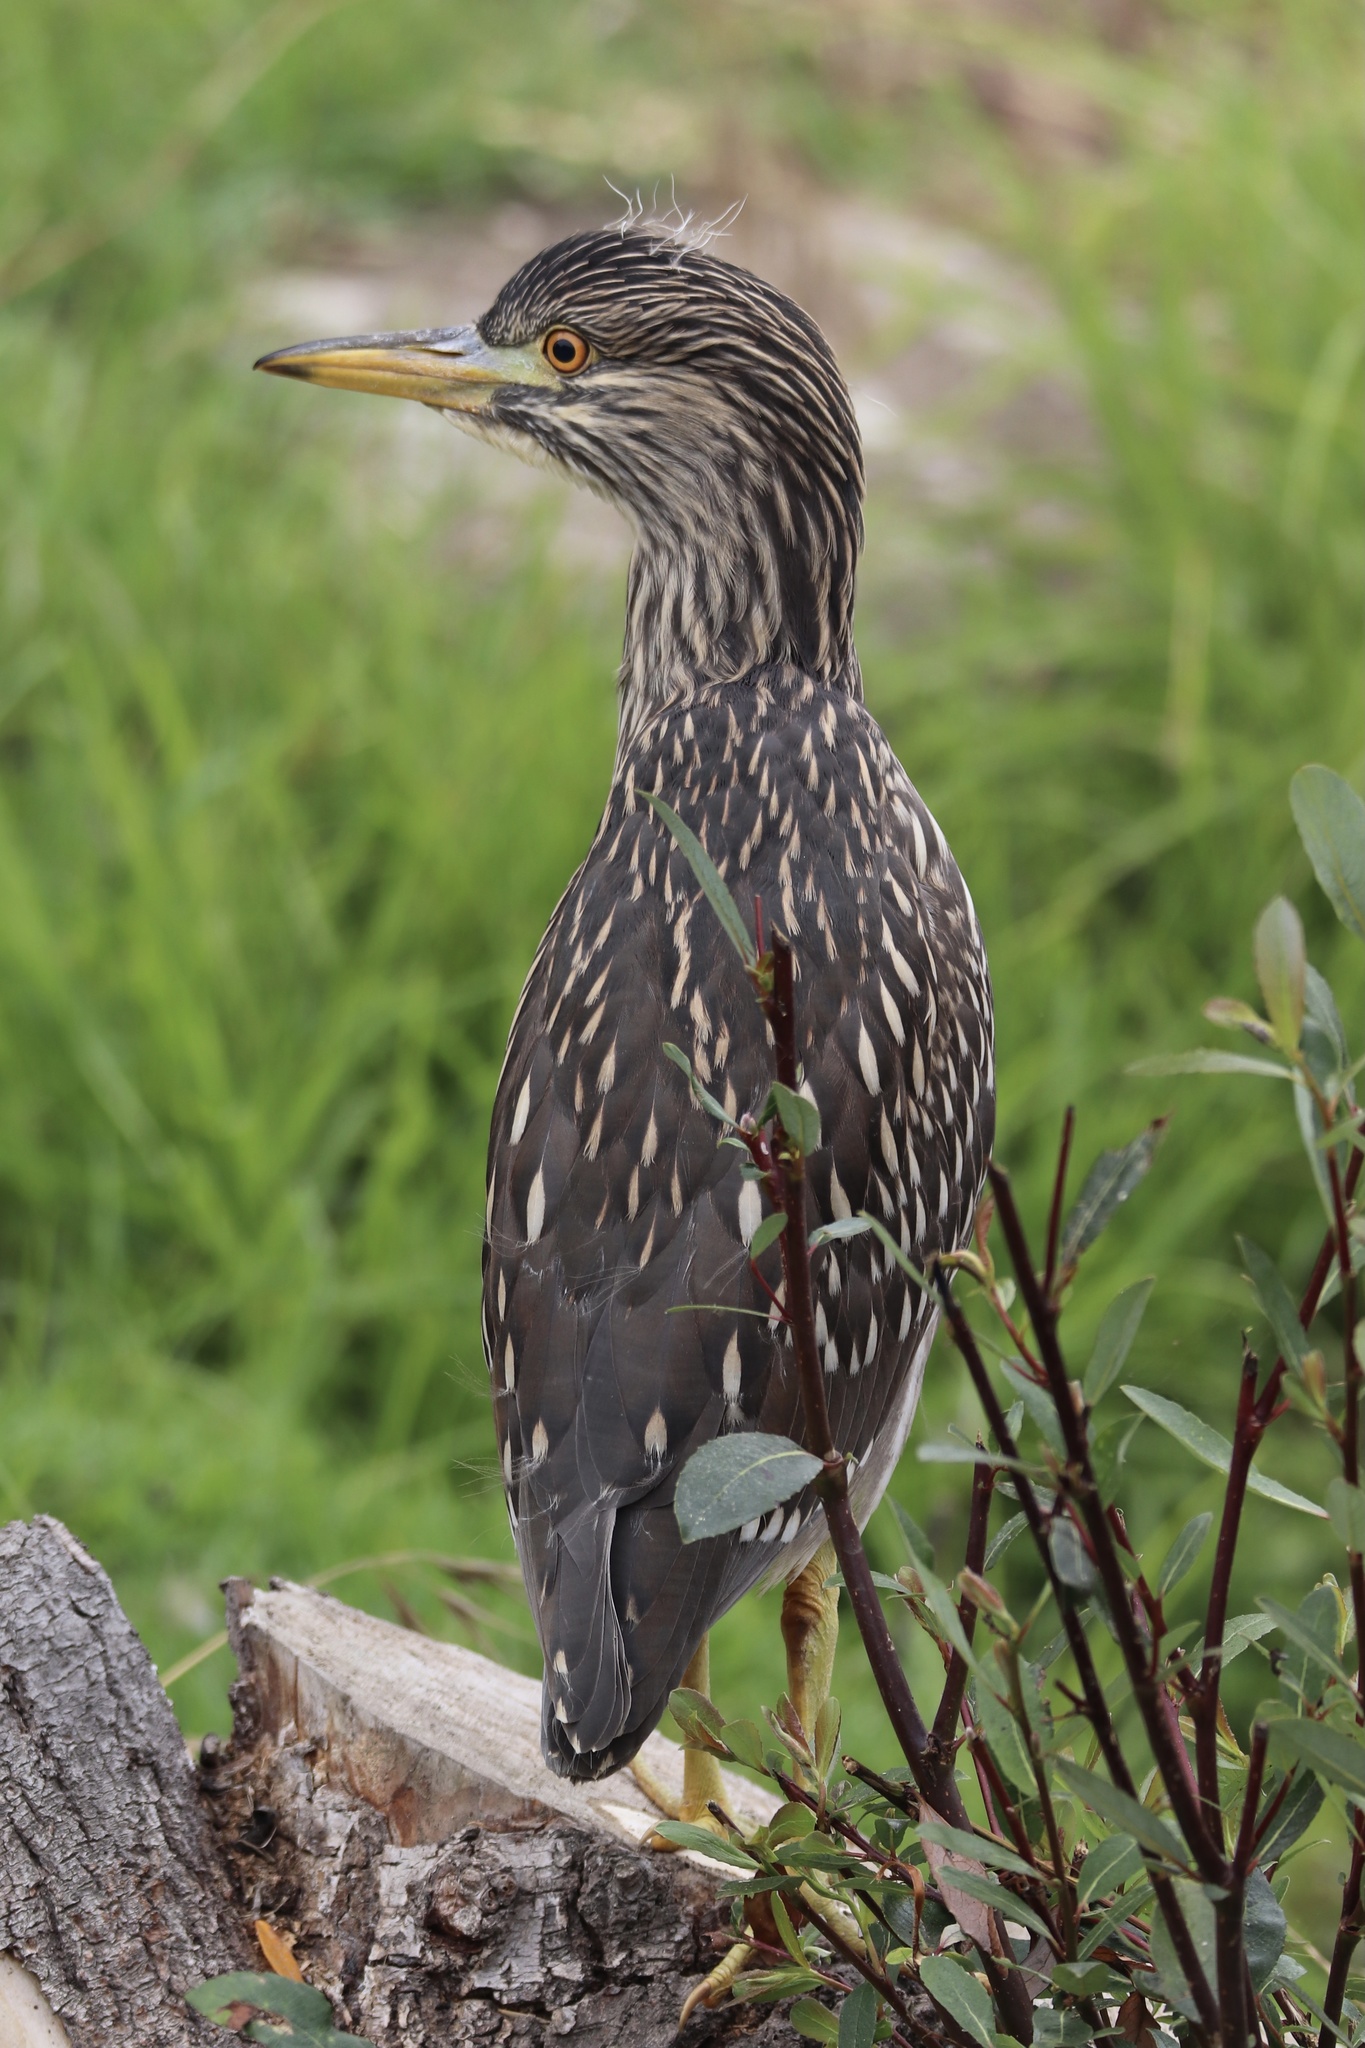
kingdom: Animalia
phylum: Chordata
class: Aves
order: Pelecaniformes
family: Ardeidae
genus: Nycticorax
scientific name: Nycticorax nycticorax
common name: Black-crowned night heron
